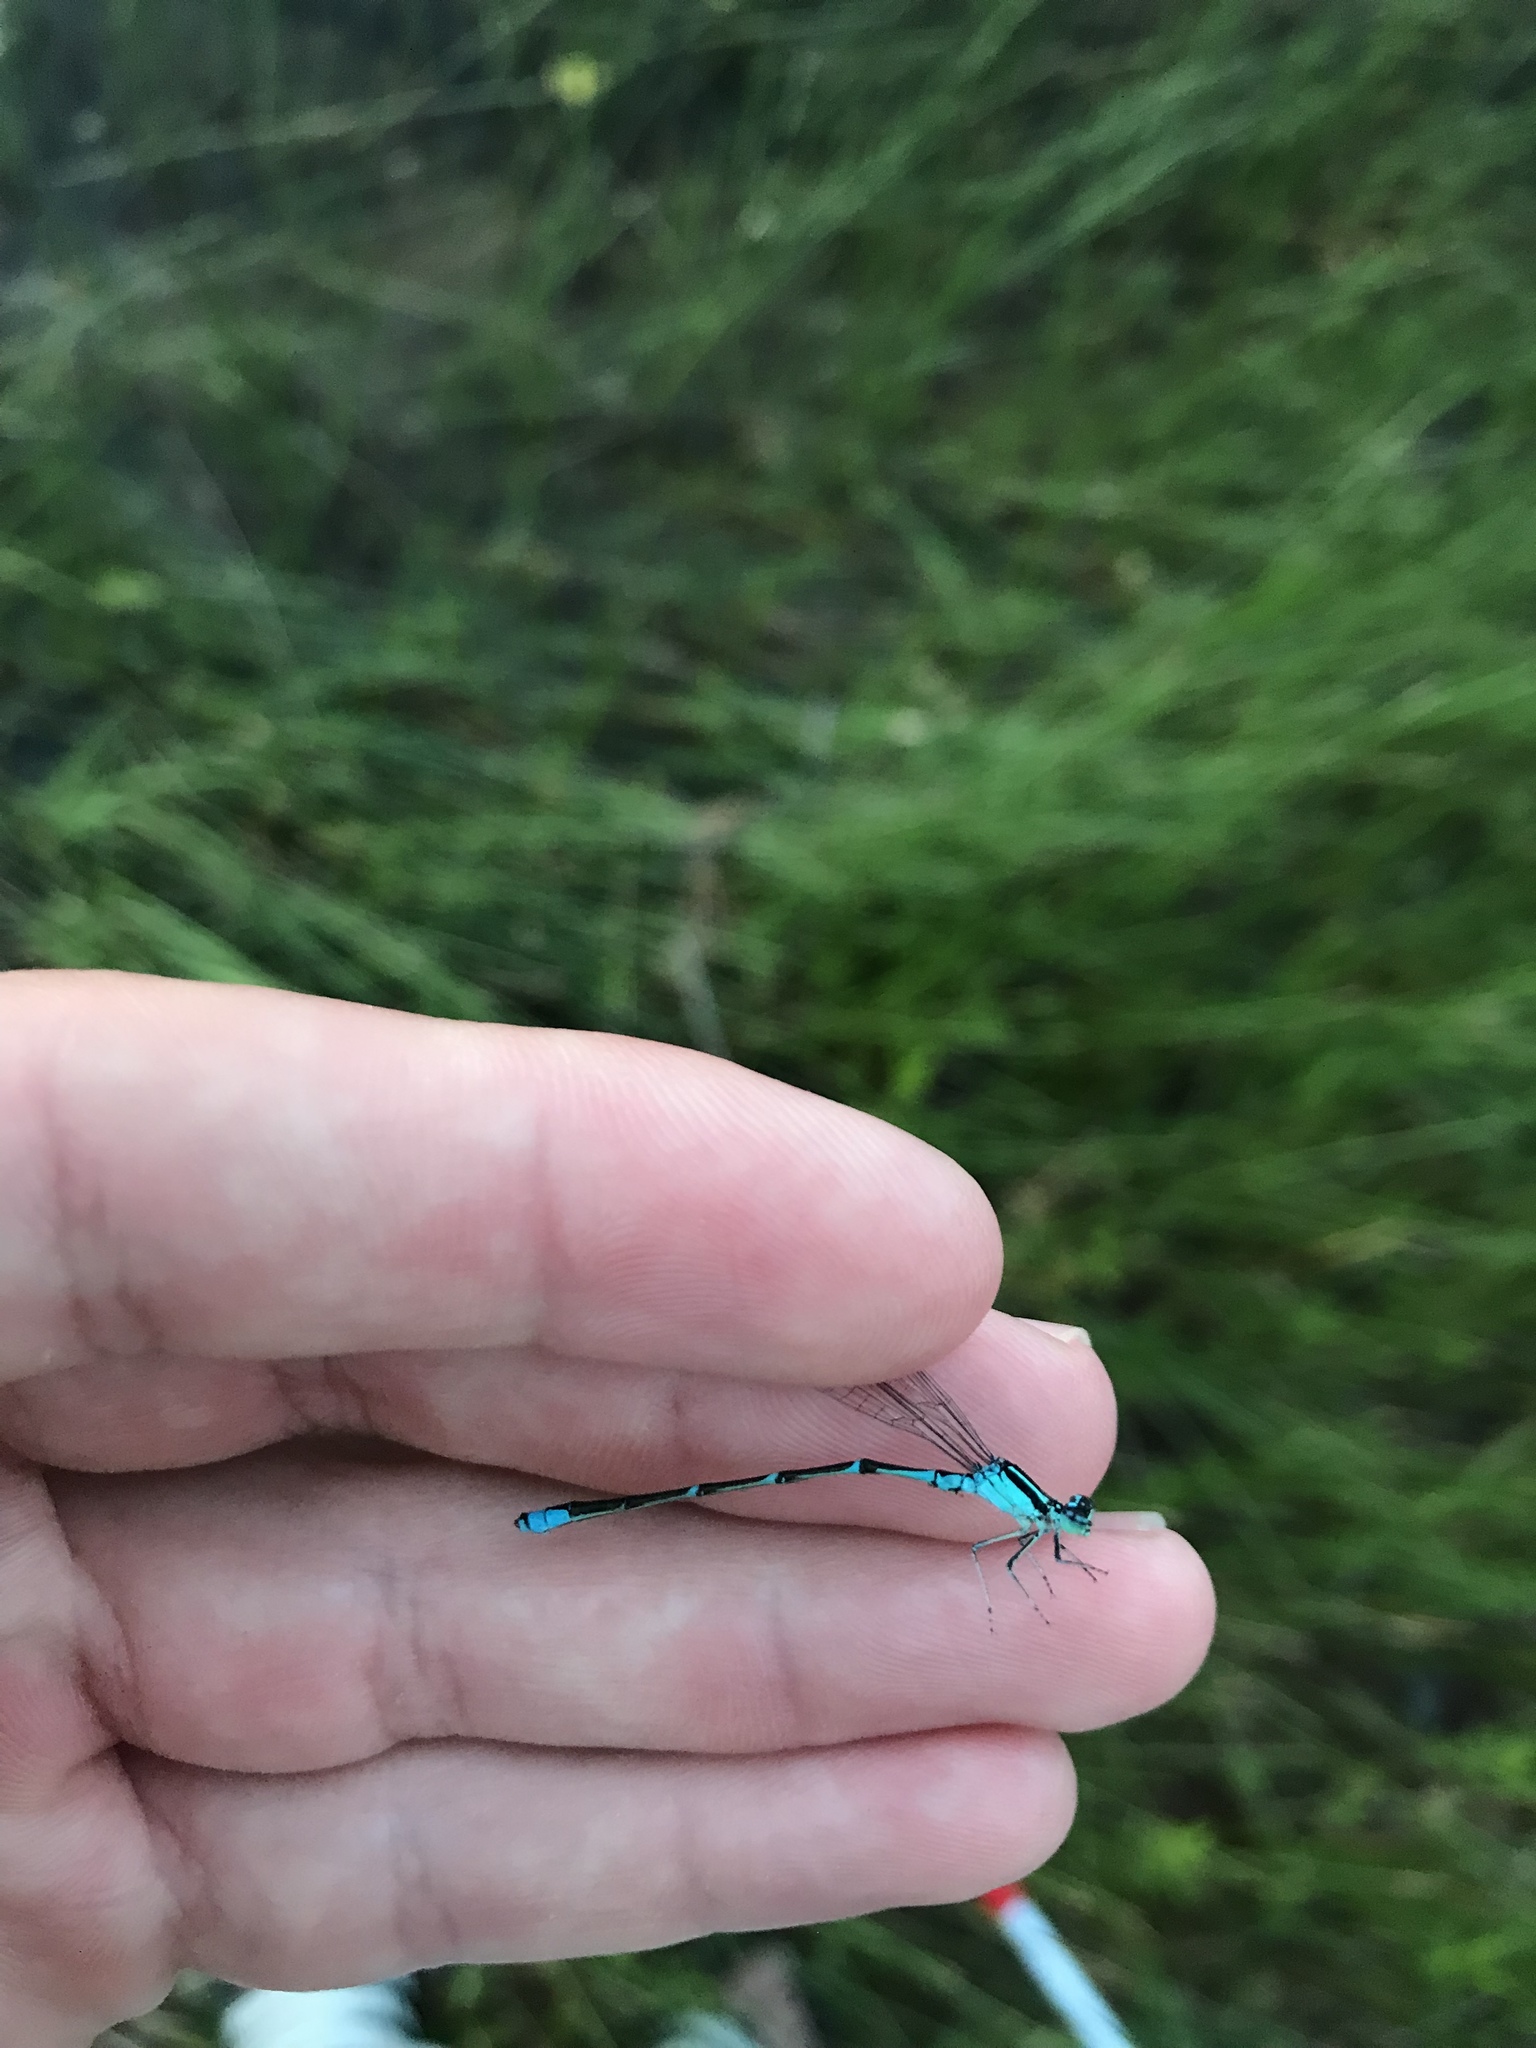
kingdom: Animalia
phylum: Arthropoda
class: Insecta
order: Odonata
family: Coenagrionidae
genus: Enallagma
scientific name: Enallagma exsulans
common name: Stream bluet
